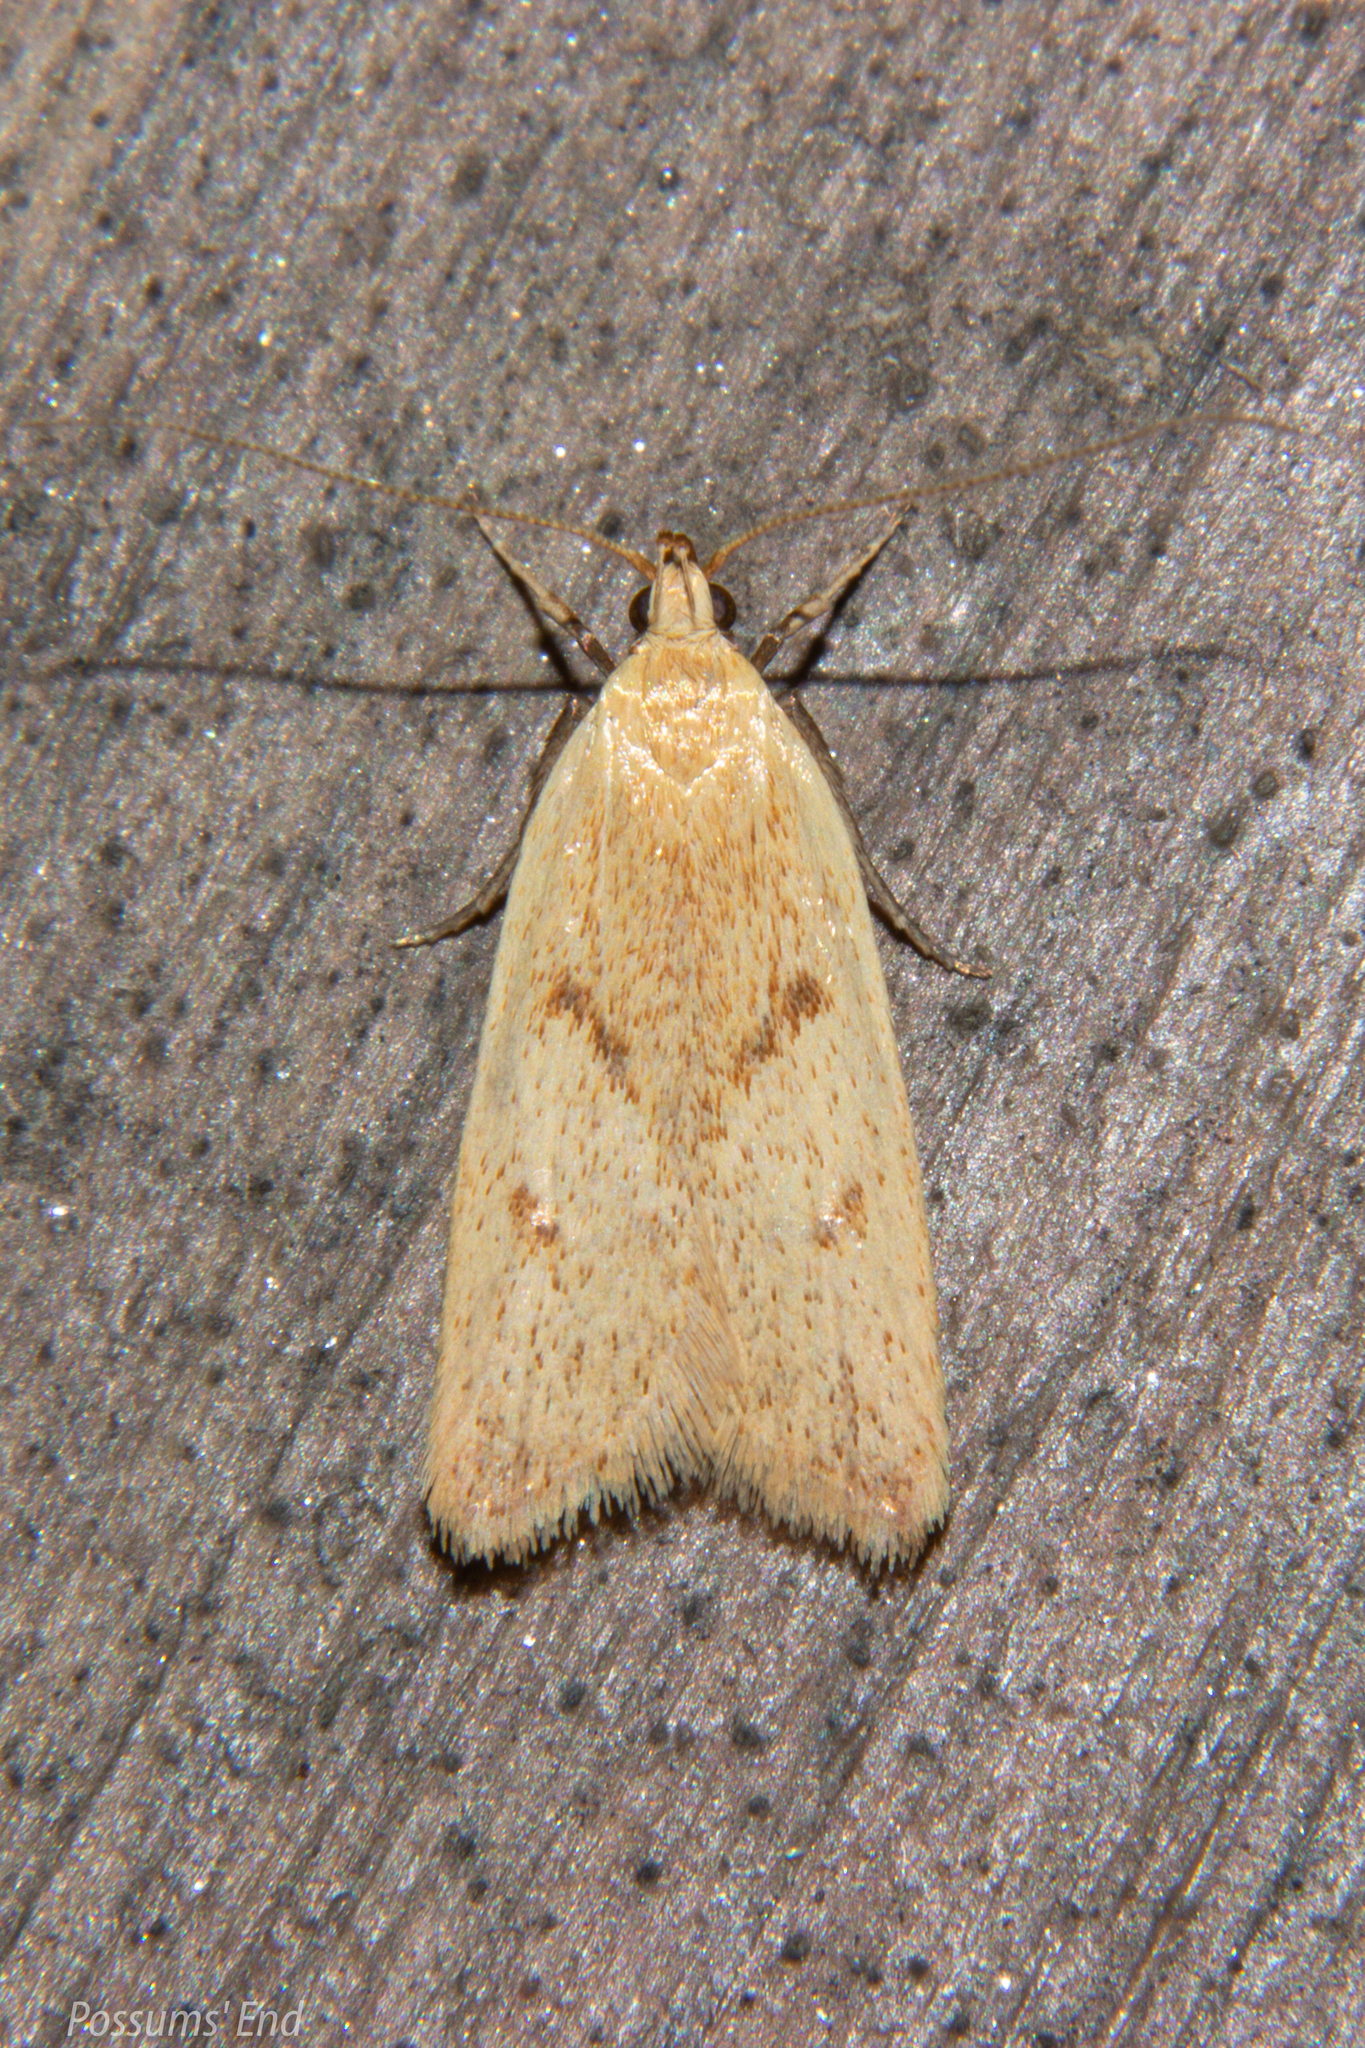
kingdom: Animalia
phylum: Arthropoda
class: Insecta
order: Lepidoptera
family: Oecophoridae
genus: Gymnobathra
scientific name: Gymnobathra sarcoxantha
